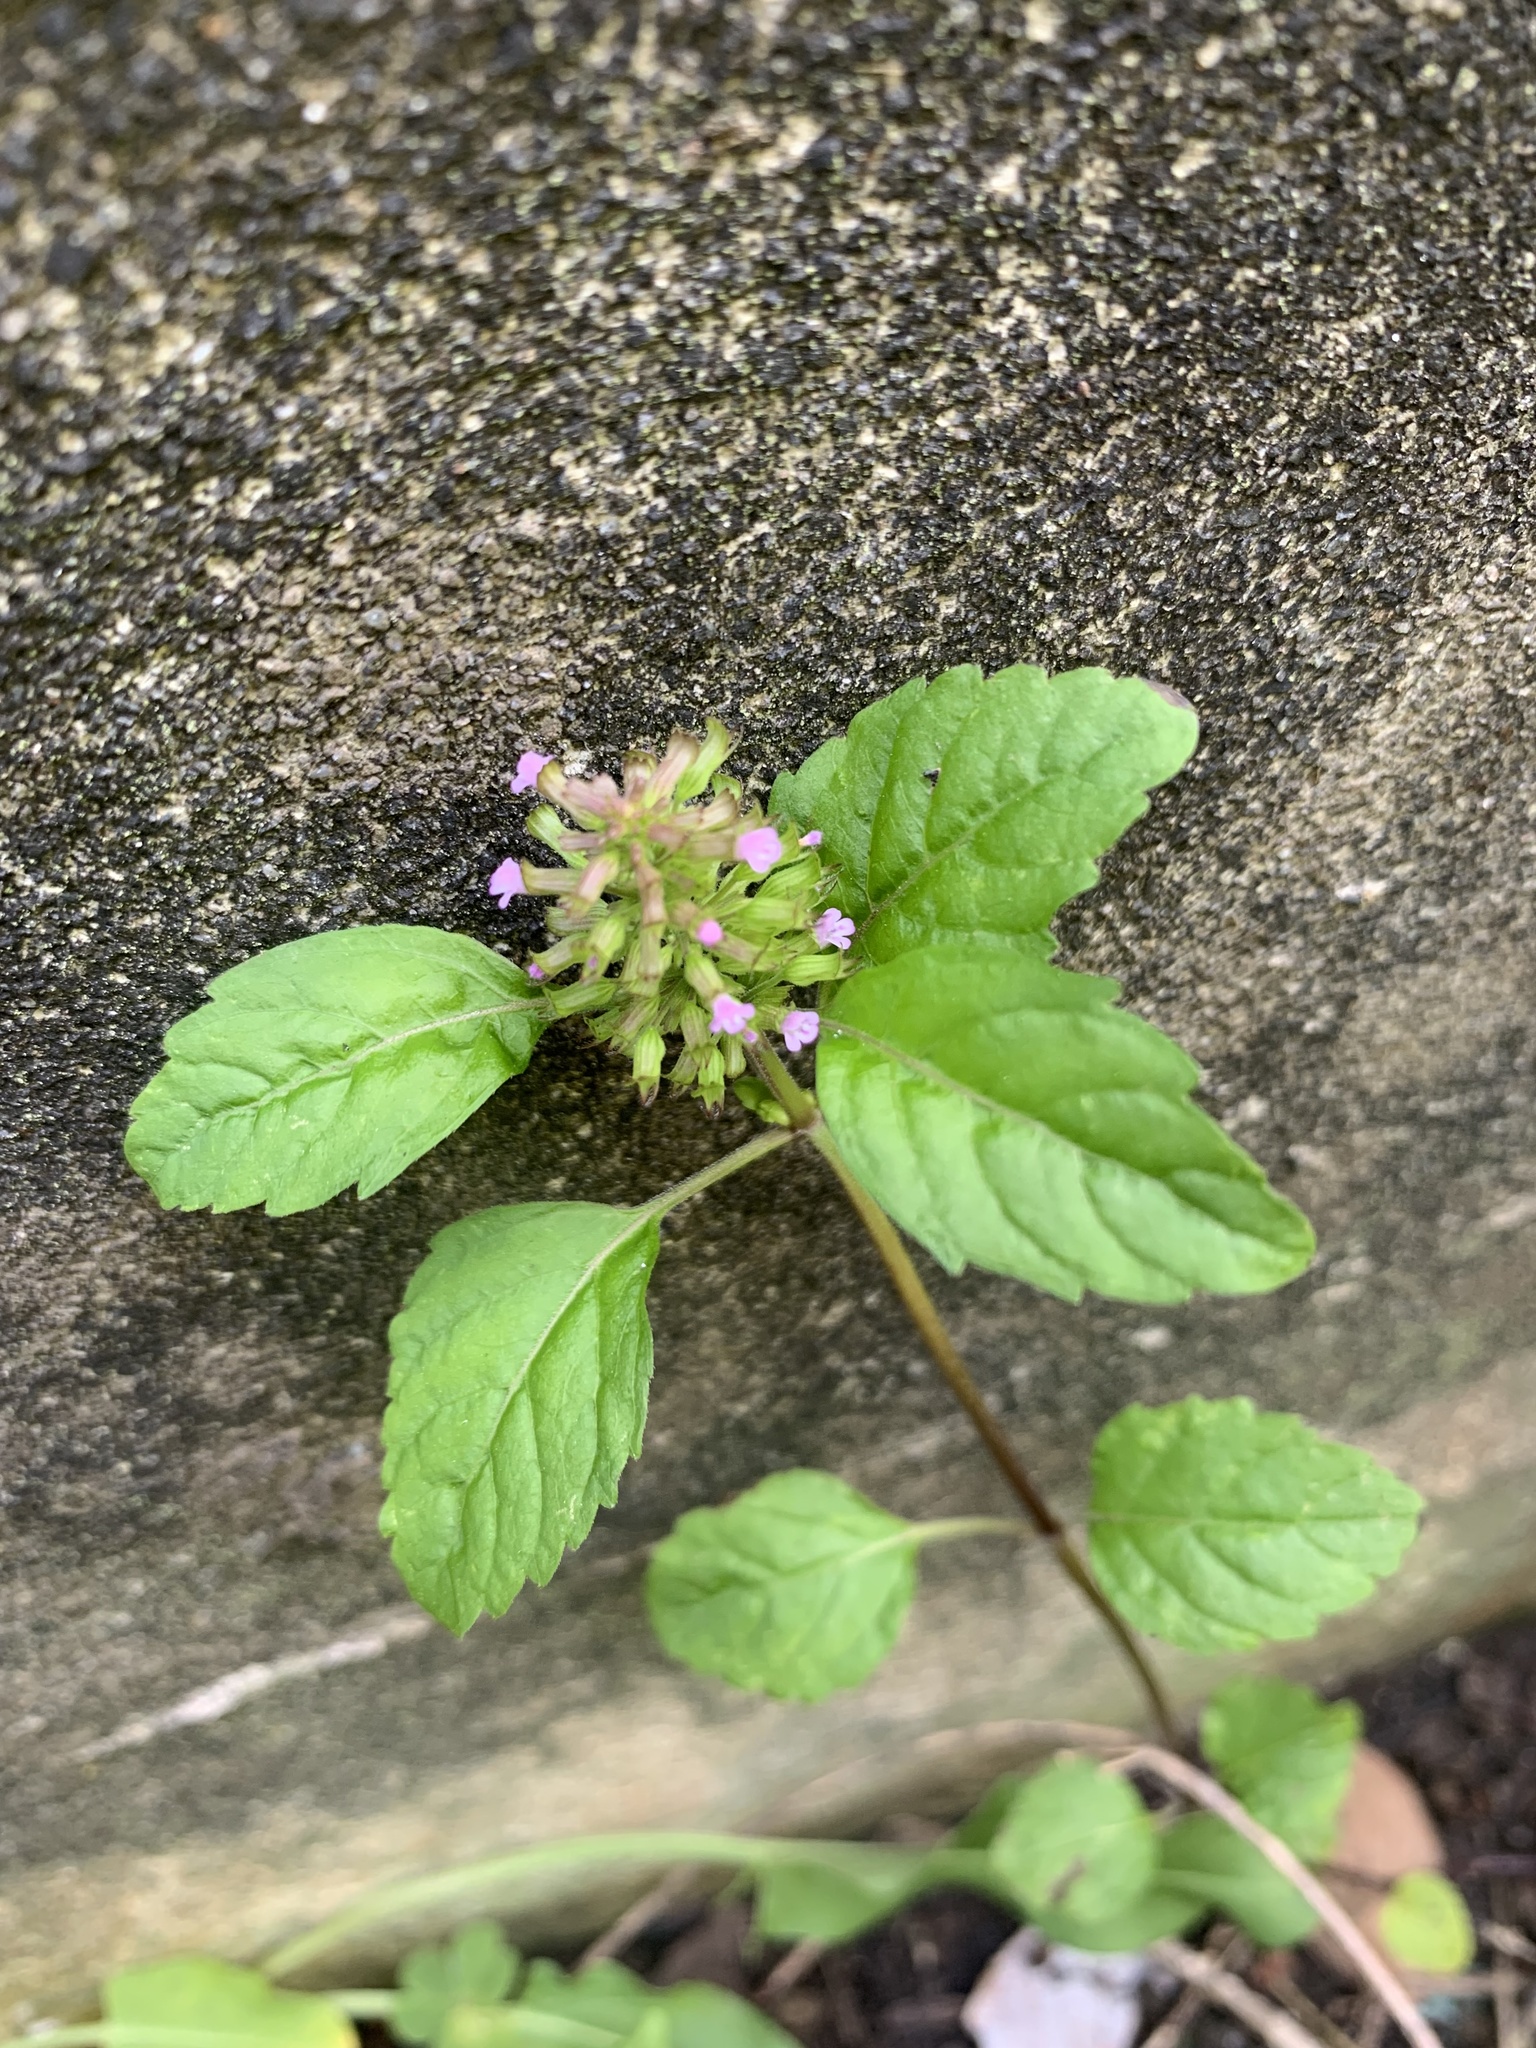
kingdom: Plantae
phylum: Tracheophyta
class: Magnoliopsida
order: Lamiales
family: Lamiaceae
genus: Clinopodium
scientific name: Clinopodium gracile
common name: Slender wild basil
